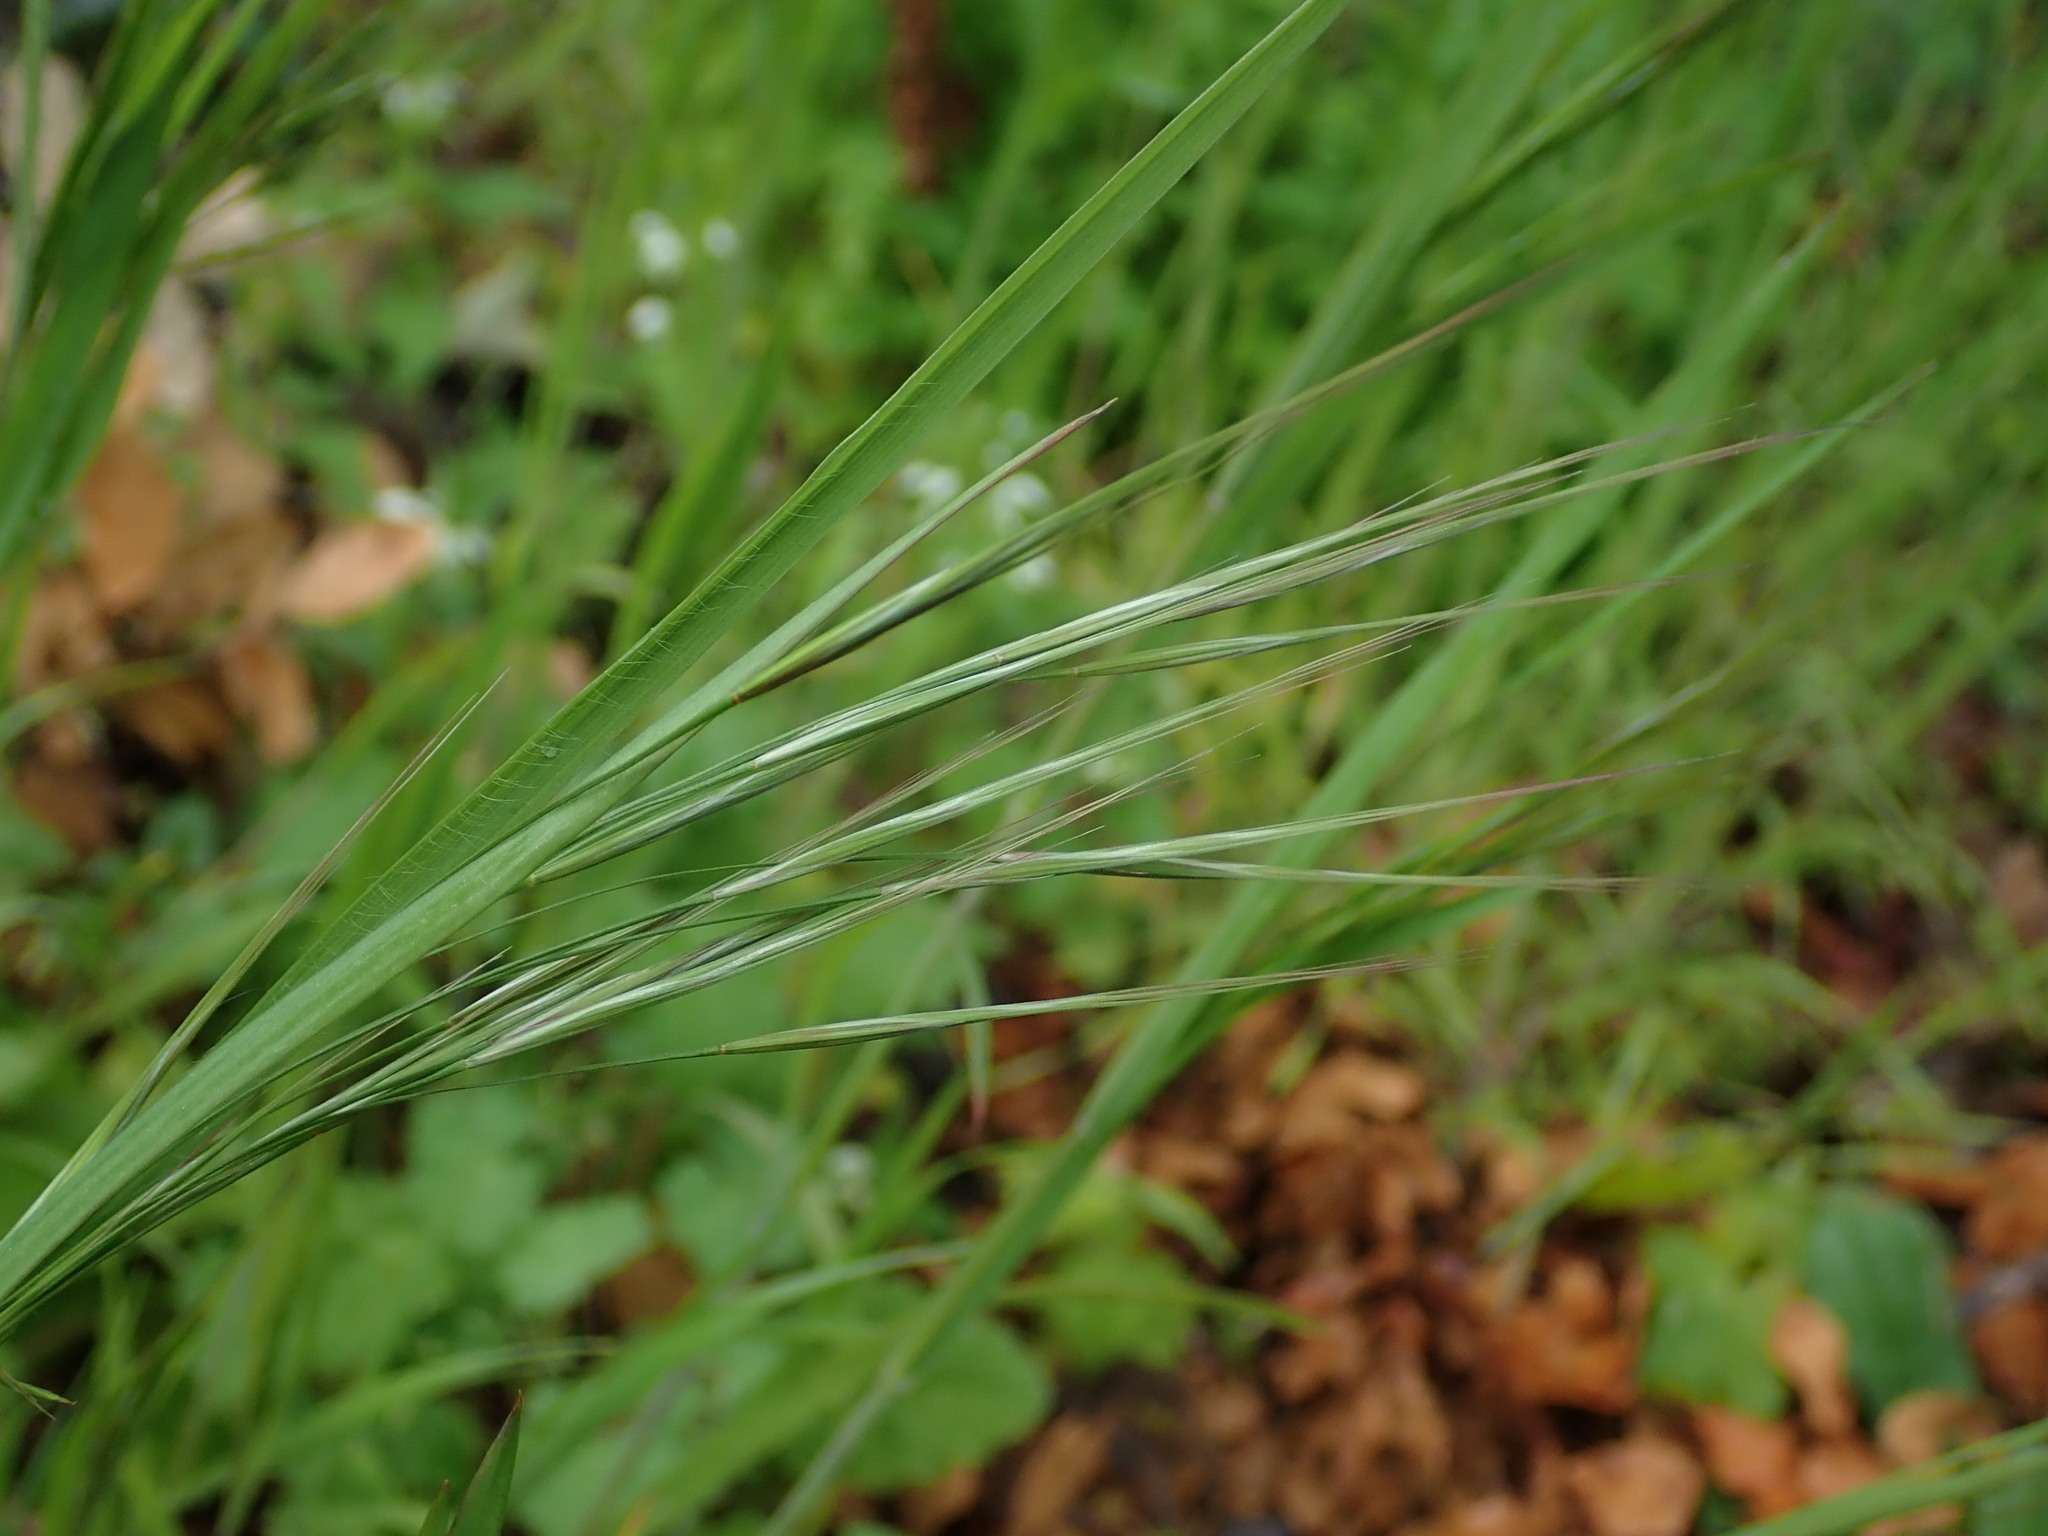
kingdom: Plantae
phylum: Tracheophyta
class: Liliopsida
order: Poales
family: Poaceae
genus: Bromus
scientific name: Bromus sterilis
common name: Poverty brome
